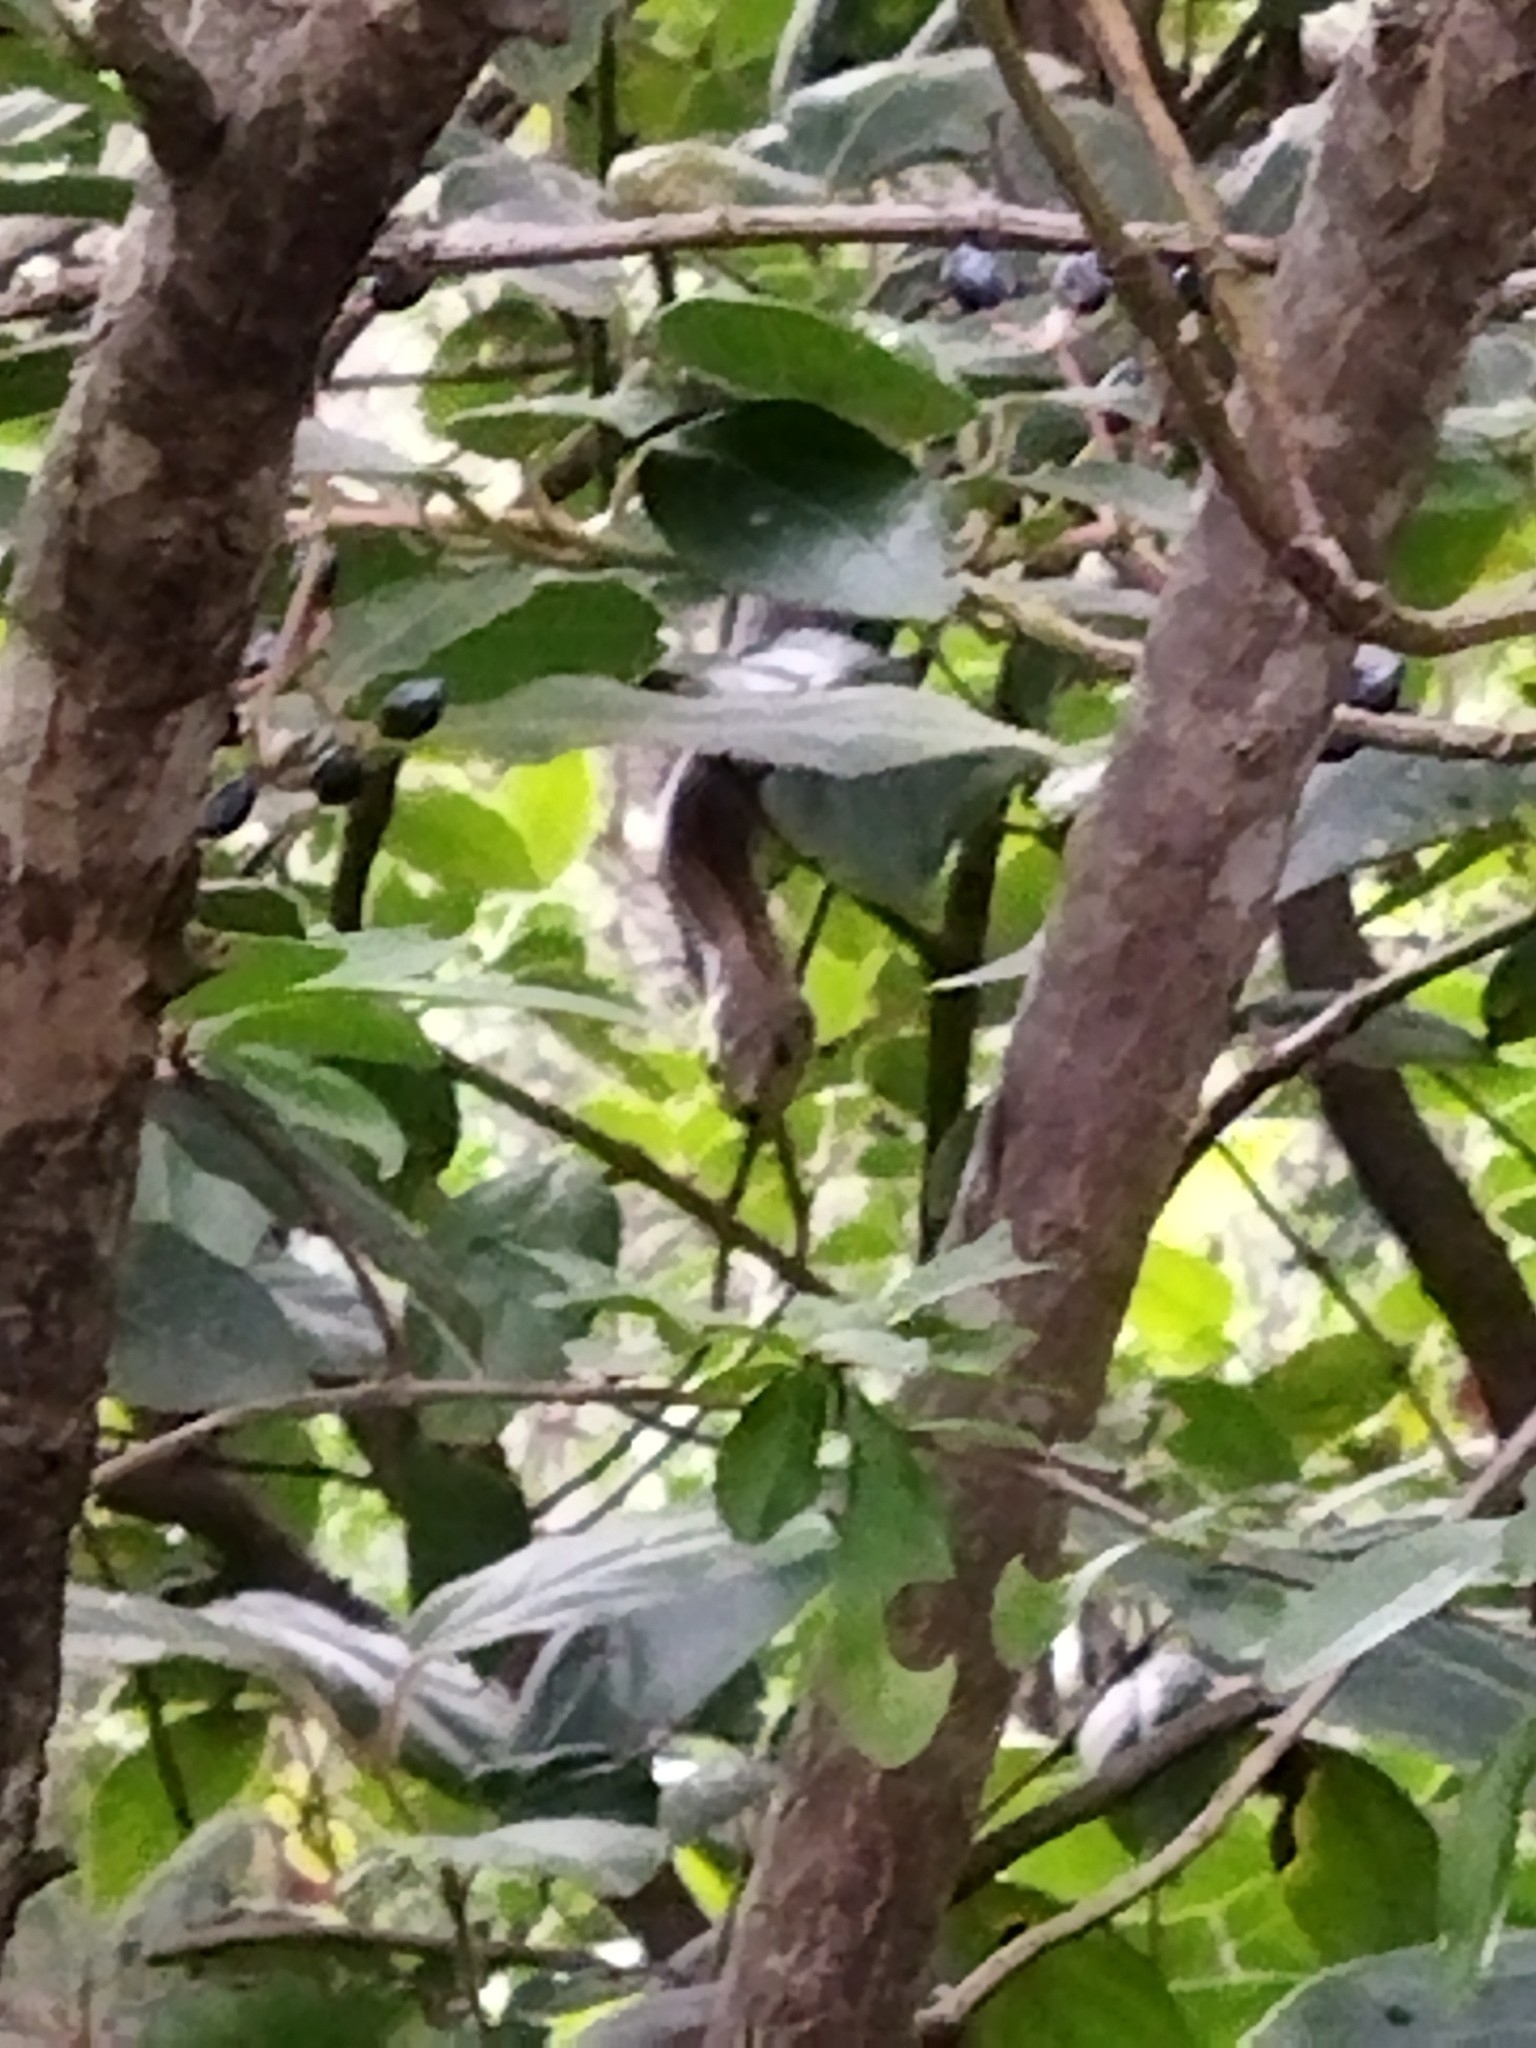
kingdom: Animalia
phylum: Chordata
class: Squamata
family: Colubridae
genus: Zamenis
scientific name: Zamenis scalaris
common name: Ladder snakes
